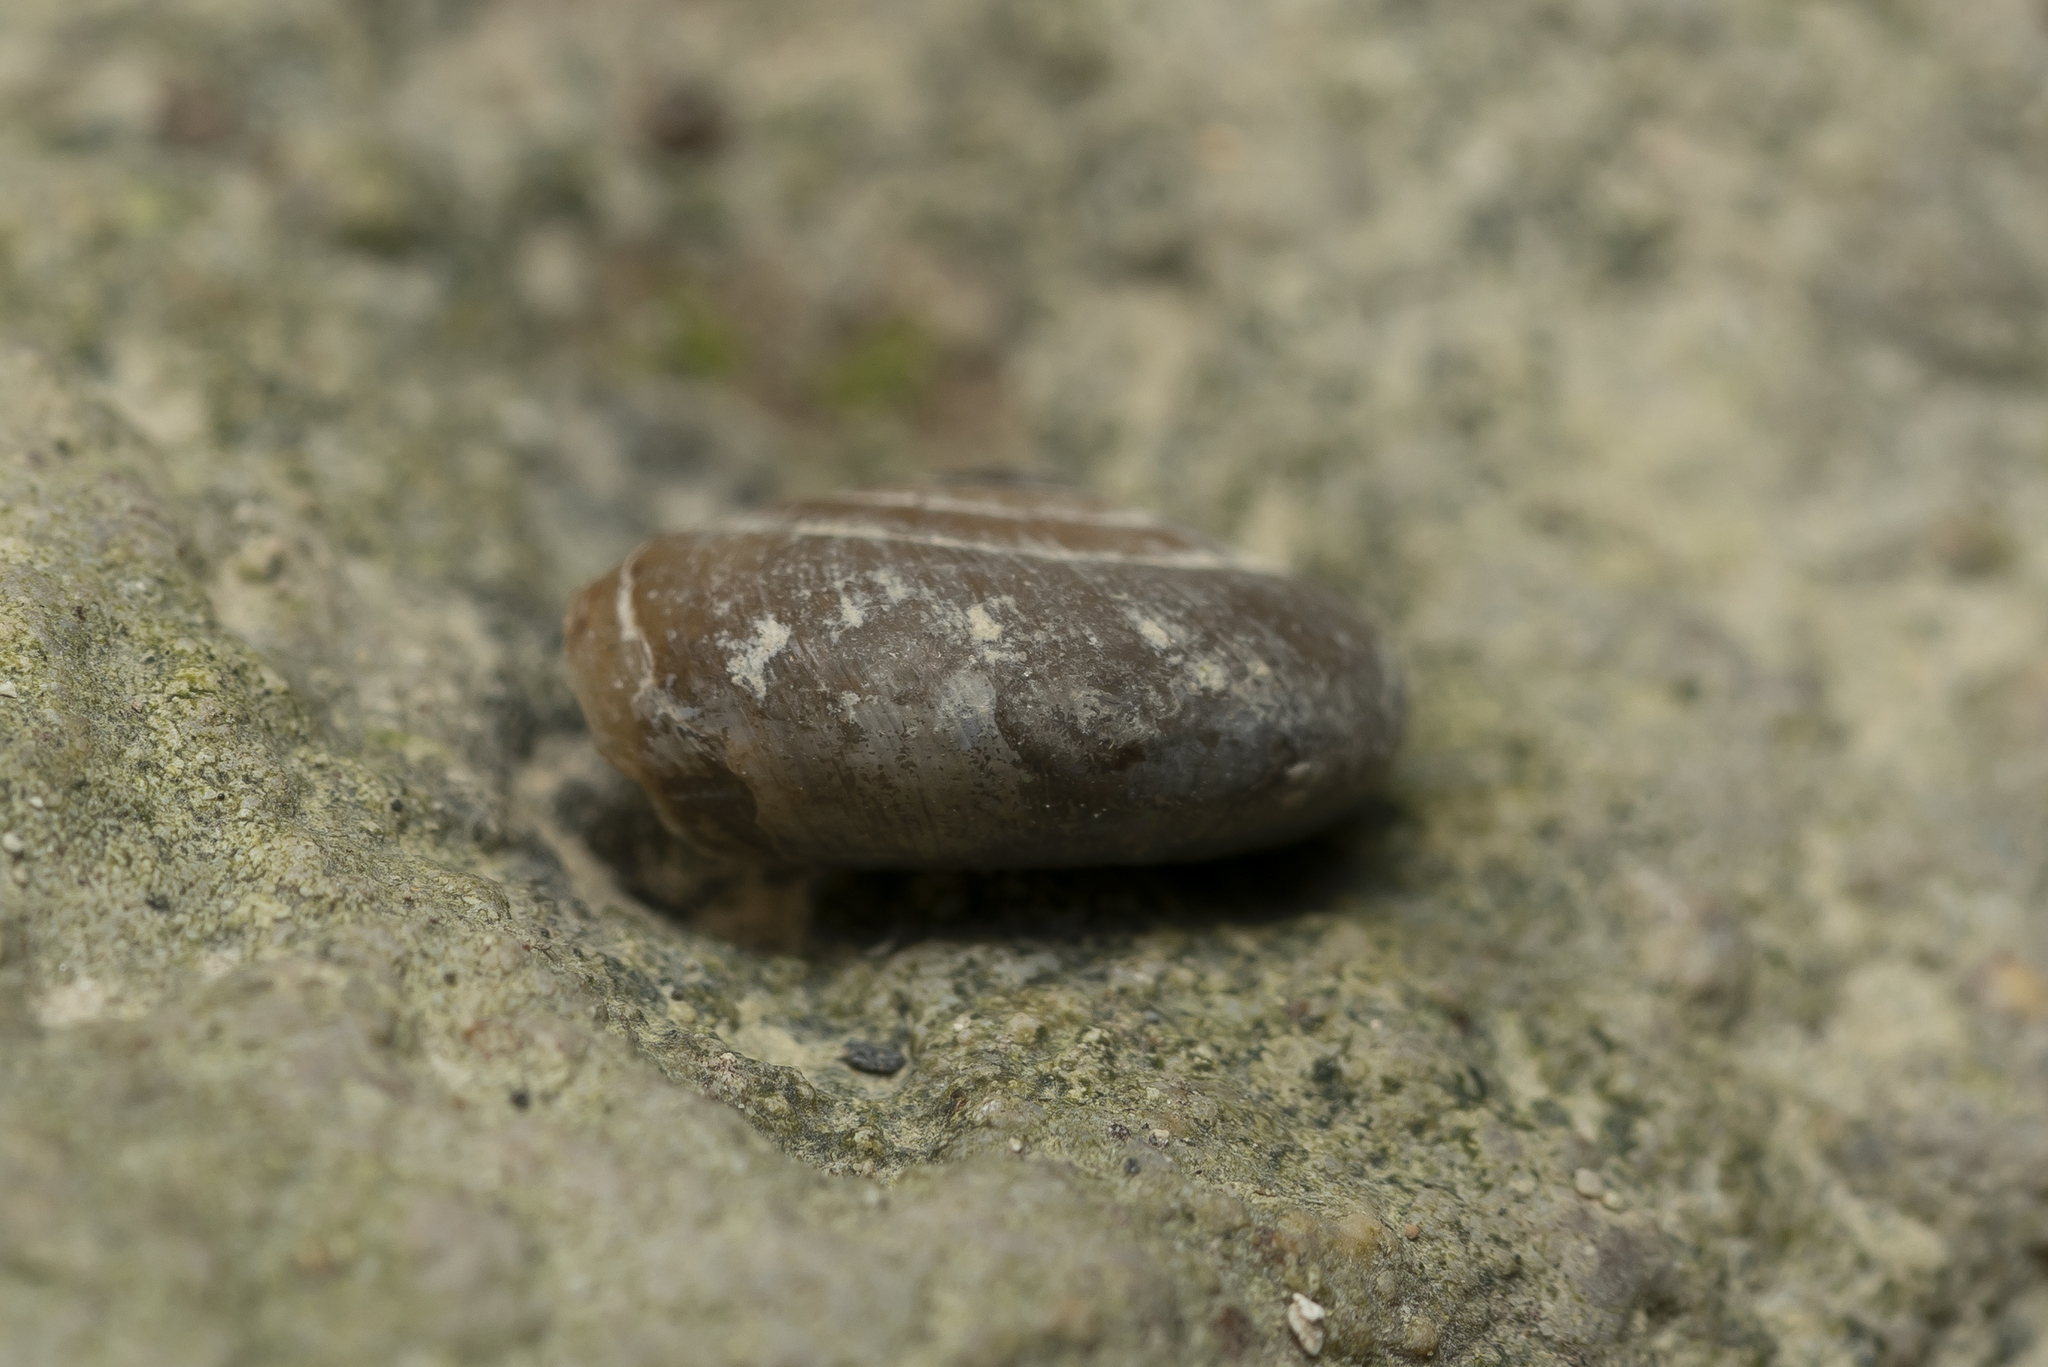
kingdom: Animalia
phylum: Mollusca
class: Gastropoda
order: Stylommatophora
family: Oxychilidae
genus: Oxychilus
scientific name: Oxychilus cyprius
